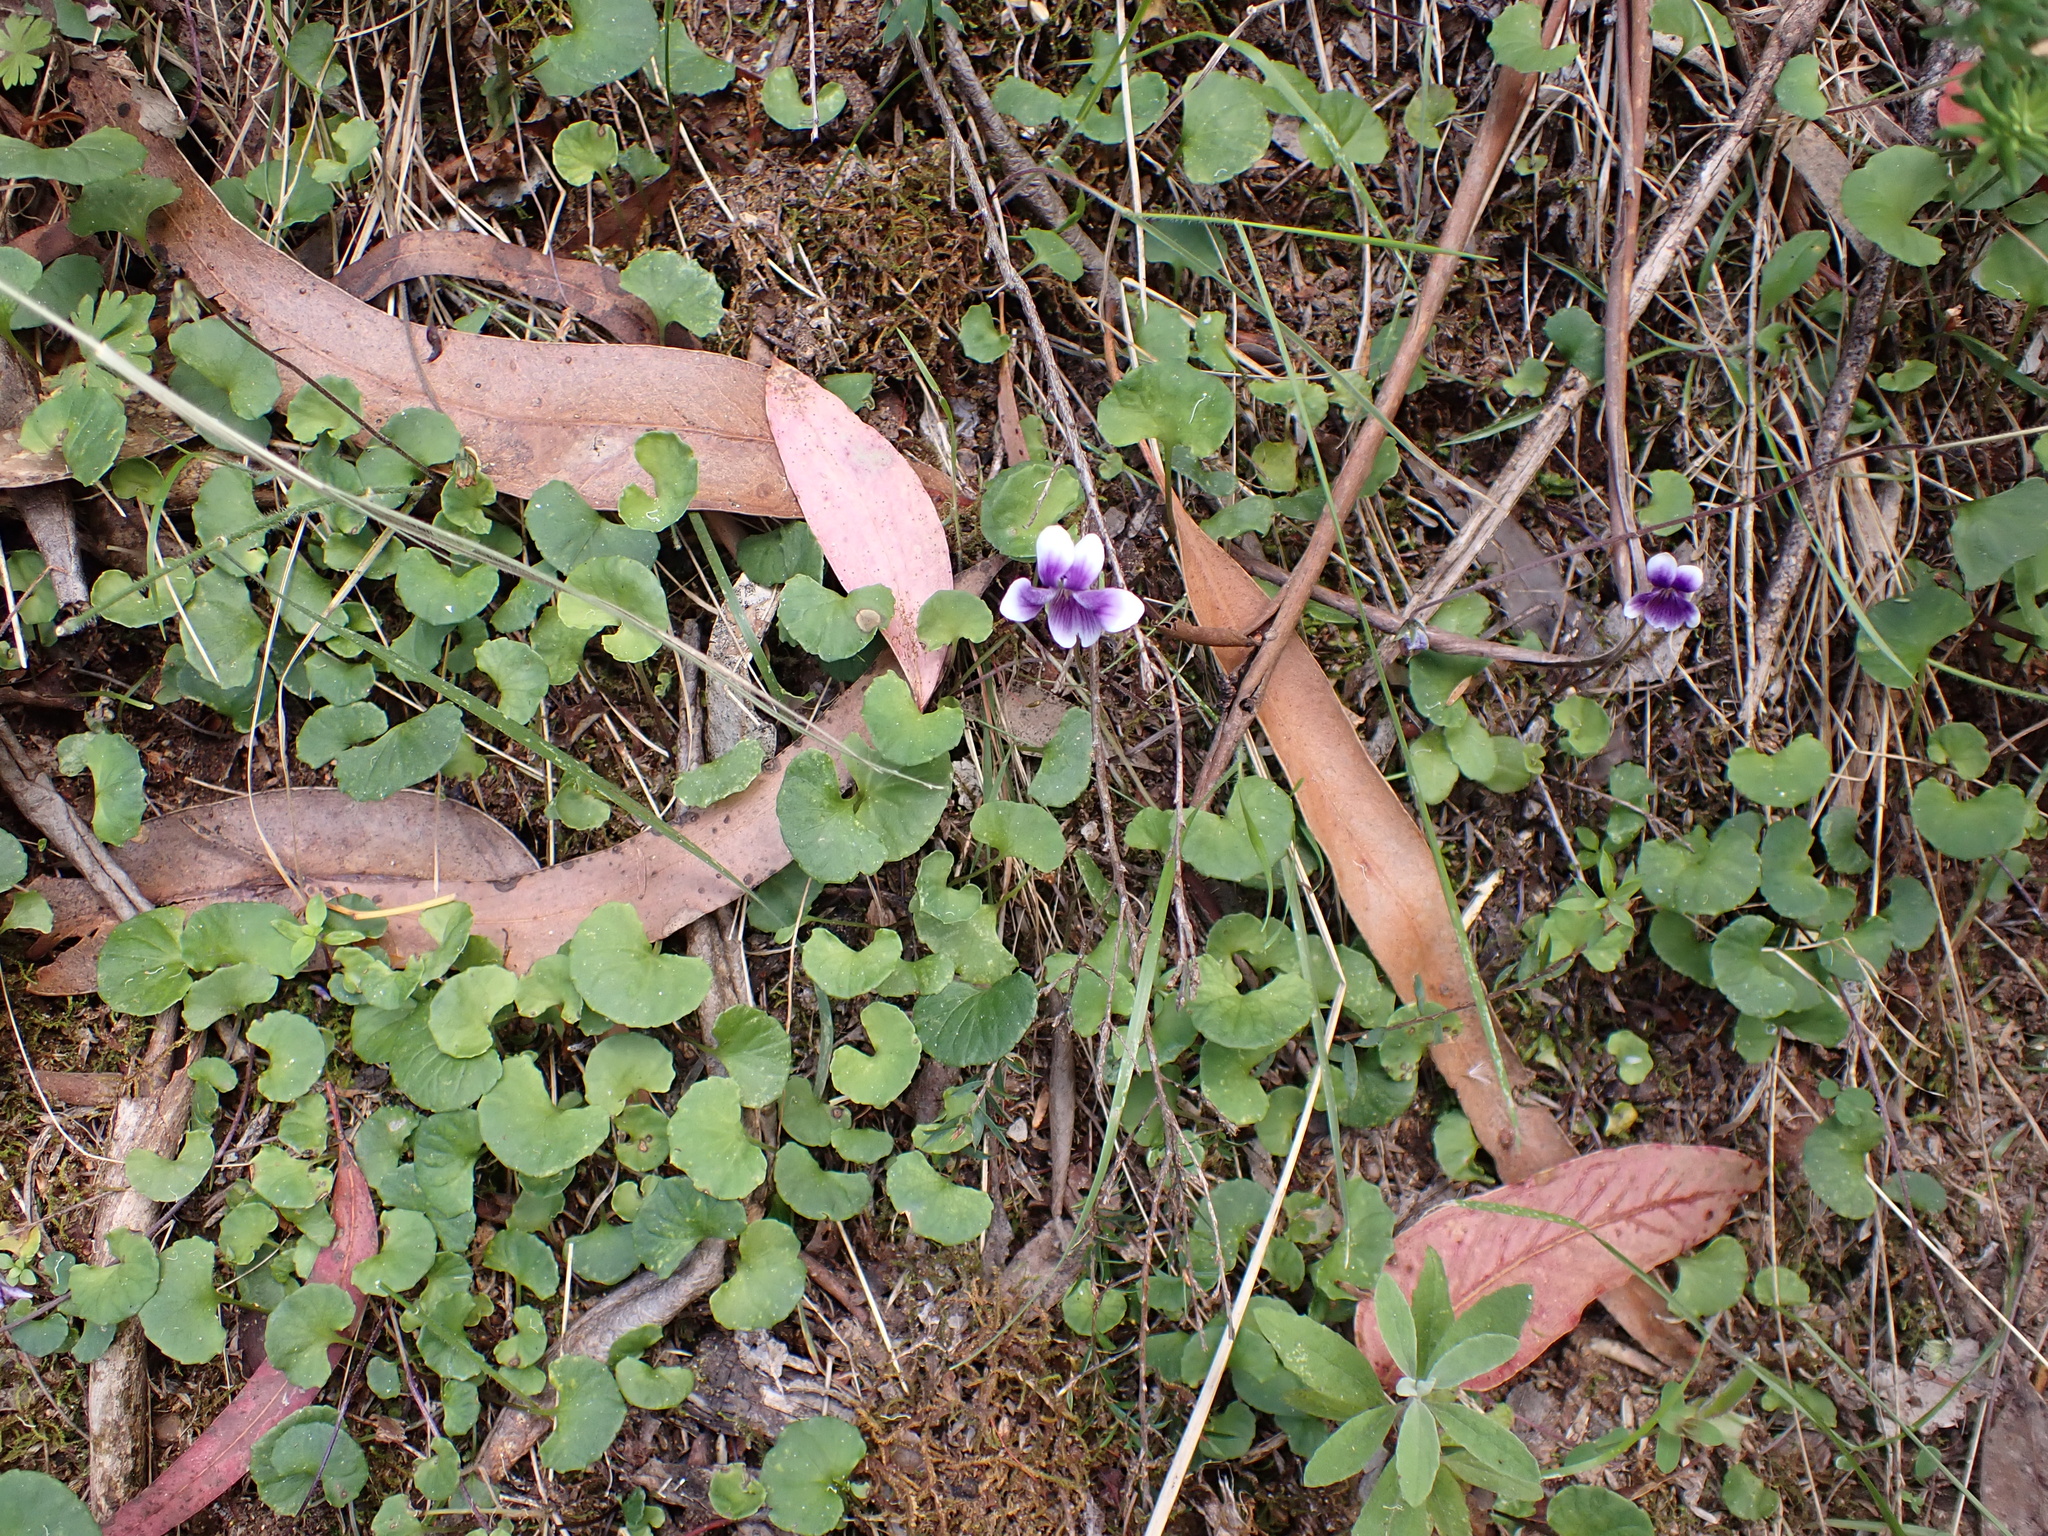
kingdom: Plantae
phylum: Tracheophyta
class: Magnoliopsida
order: Malpighiales
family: Violaceae
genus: Viola
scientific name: Viola hederacea
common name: Australian violet
